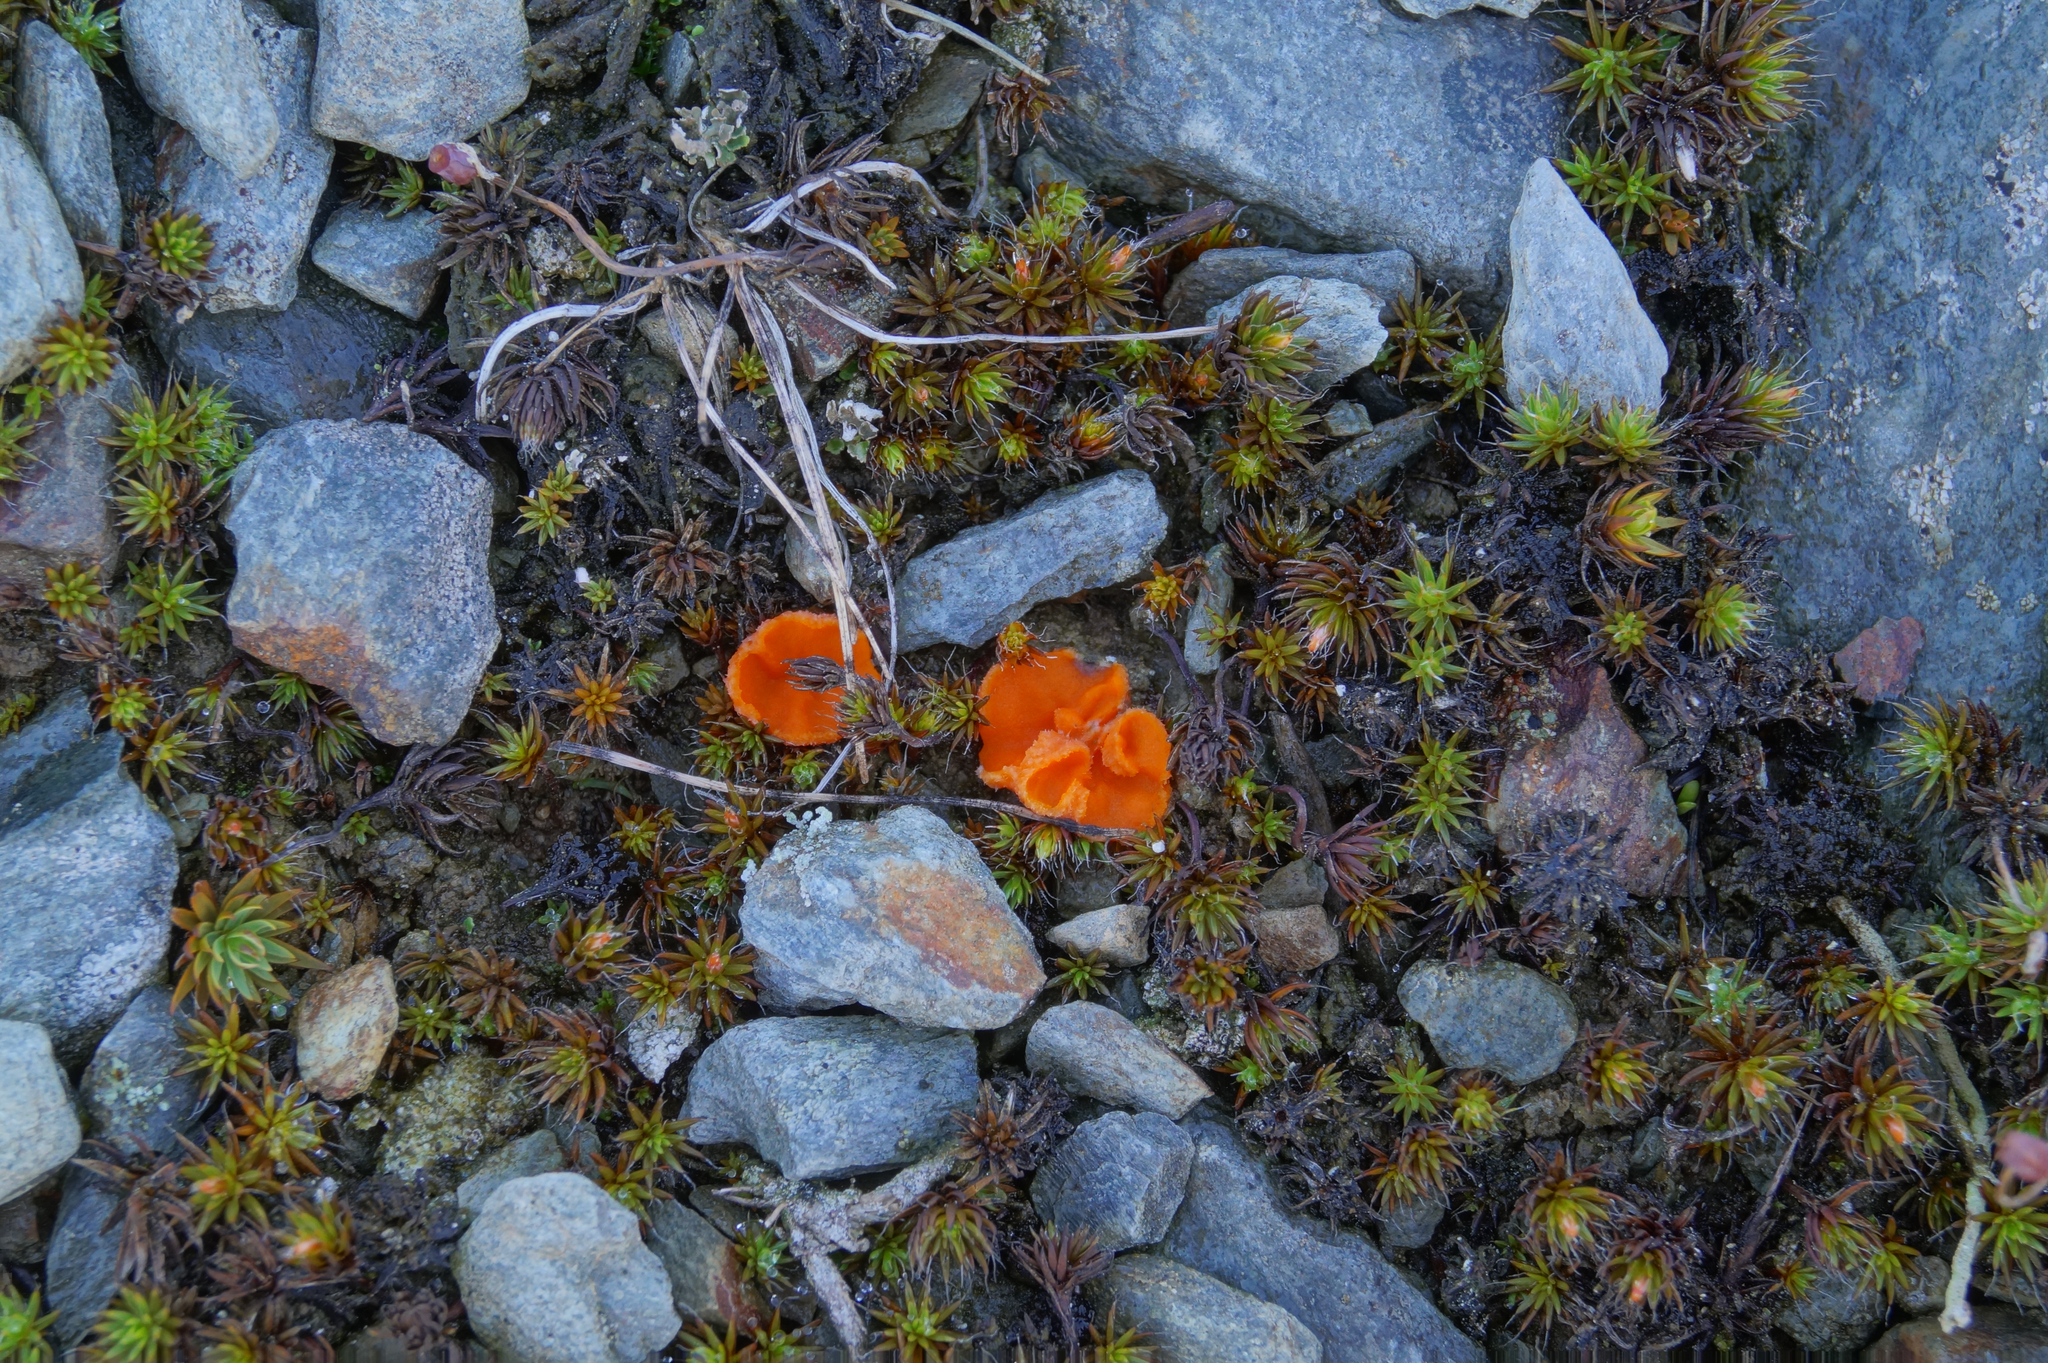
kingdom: Fungi
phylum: Ascomycota
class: Pezizomycetes
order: Pezizales
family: Pyronemataceae
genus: Octospora
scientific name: Octospora humosa
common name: Hotlips
